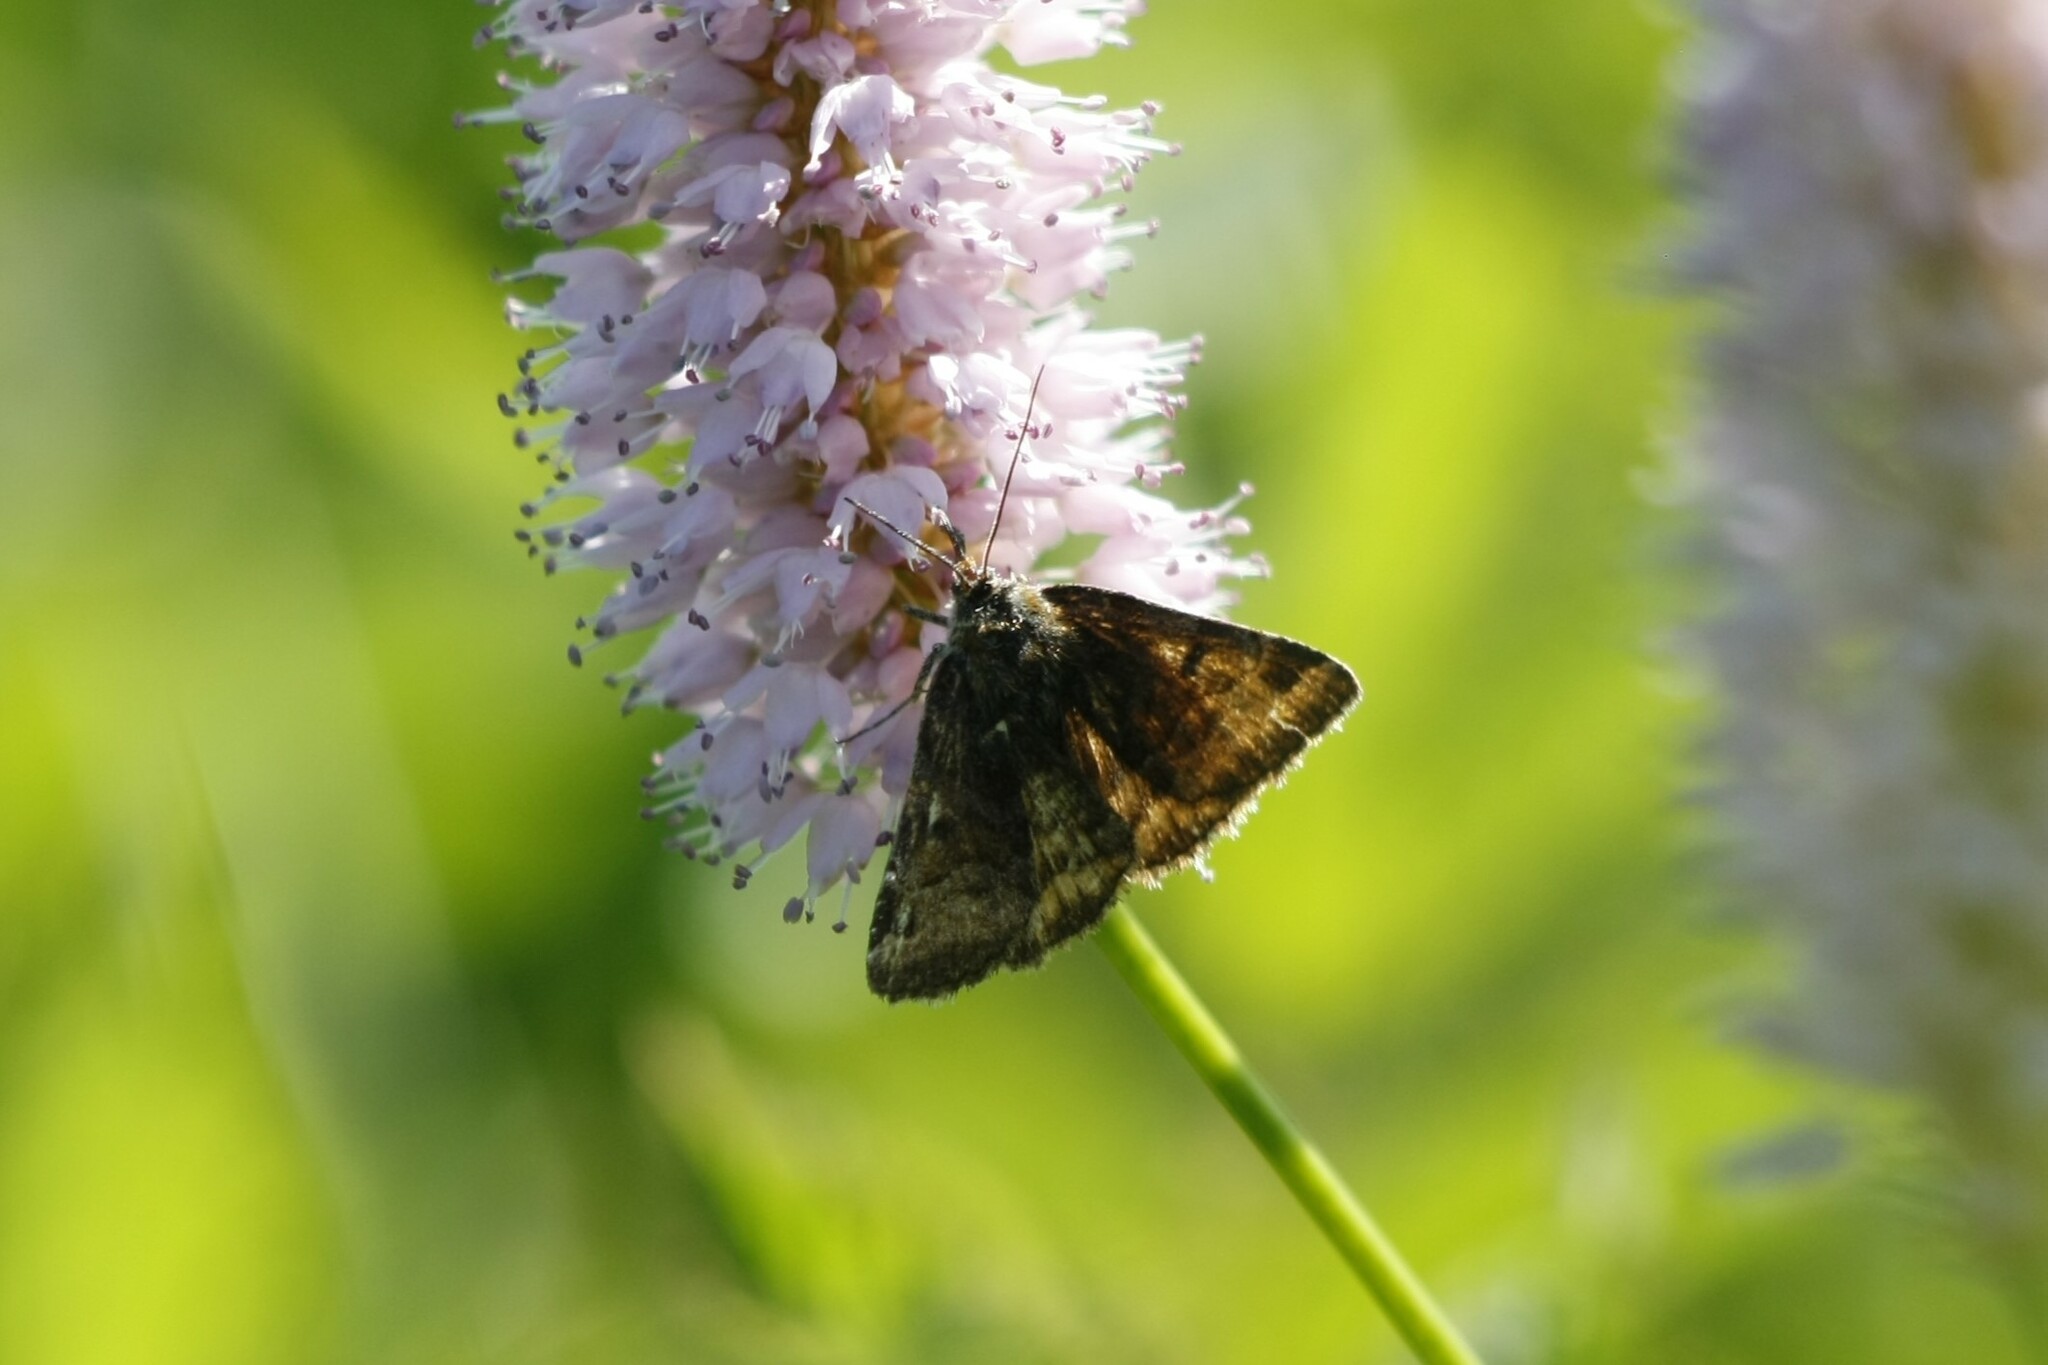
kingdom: Animalia
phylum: Arthropoda
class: Insecta
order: Lepidoptera
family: Erebidae
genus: Euclidia
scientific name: Euclidia glyphica
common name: Burnet companion
